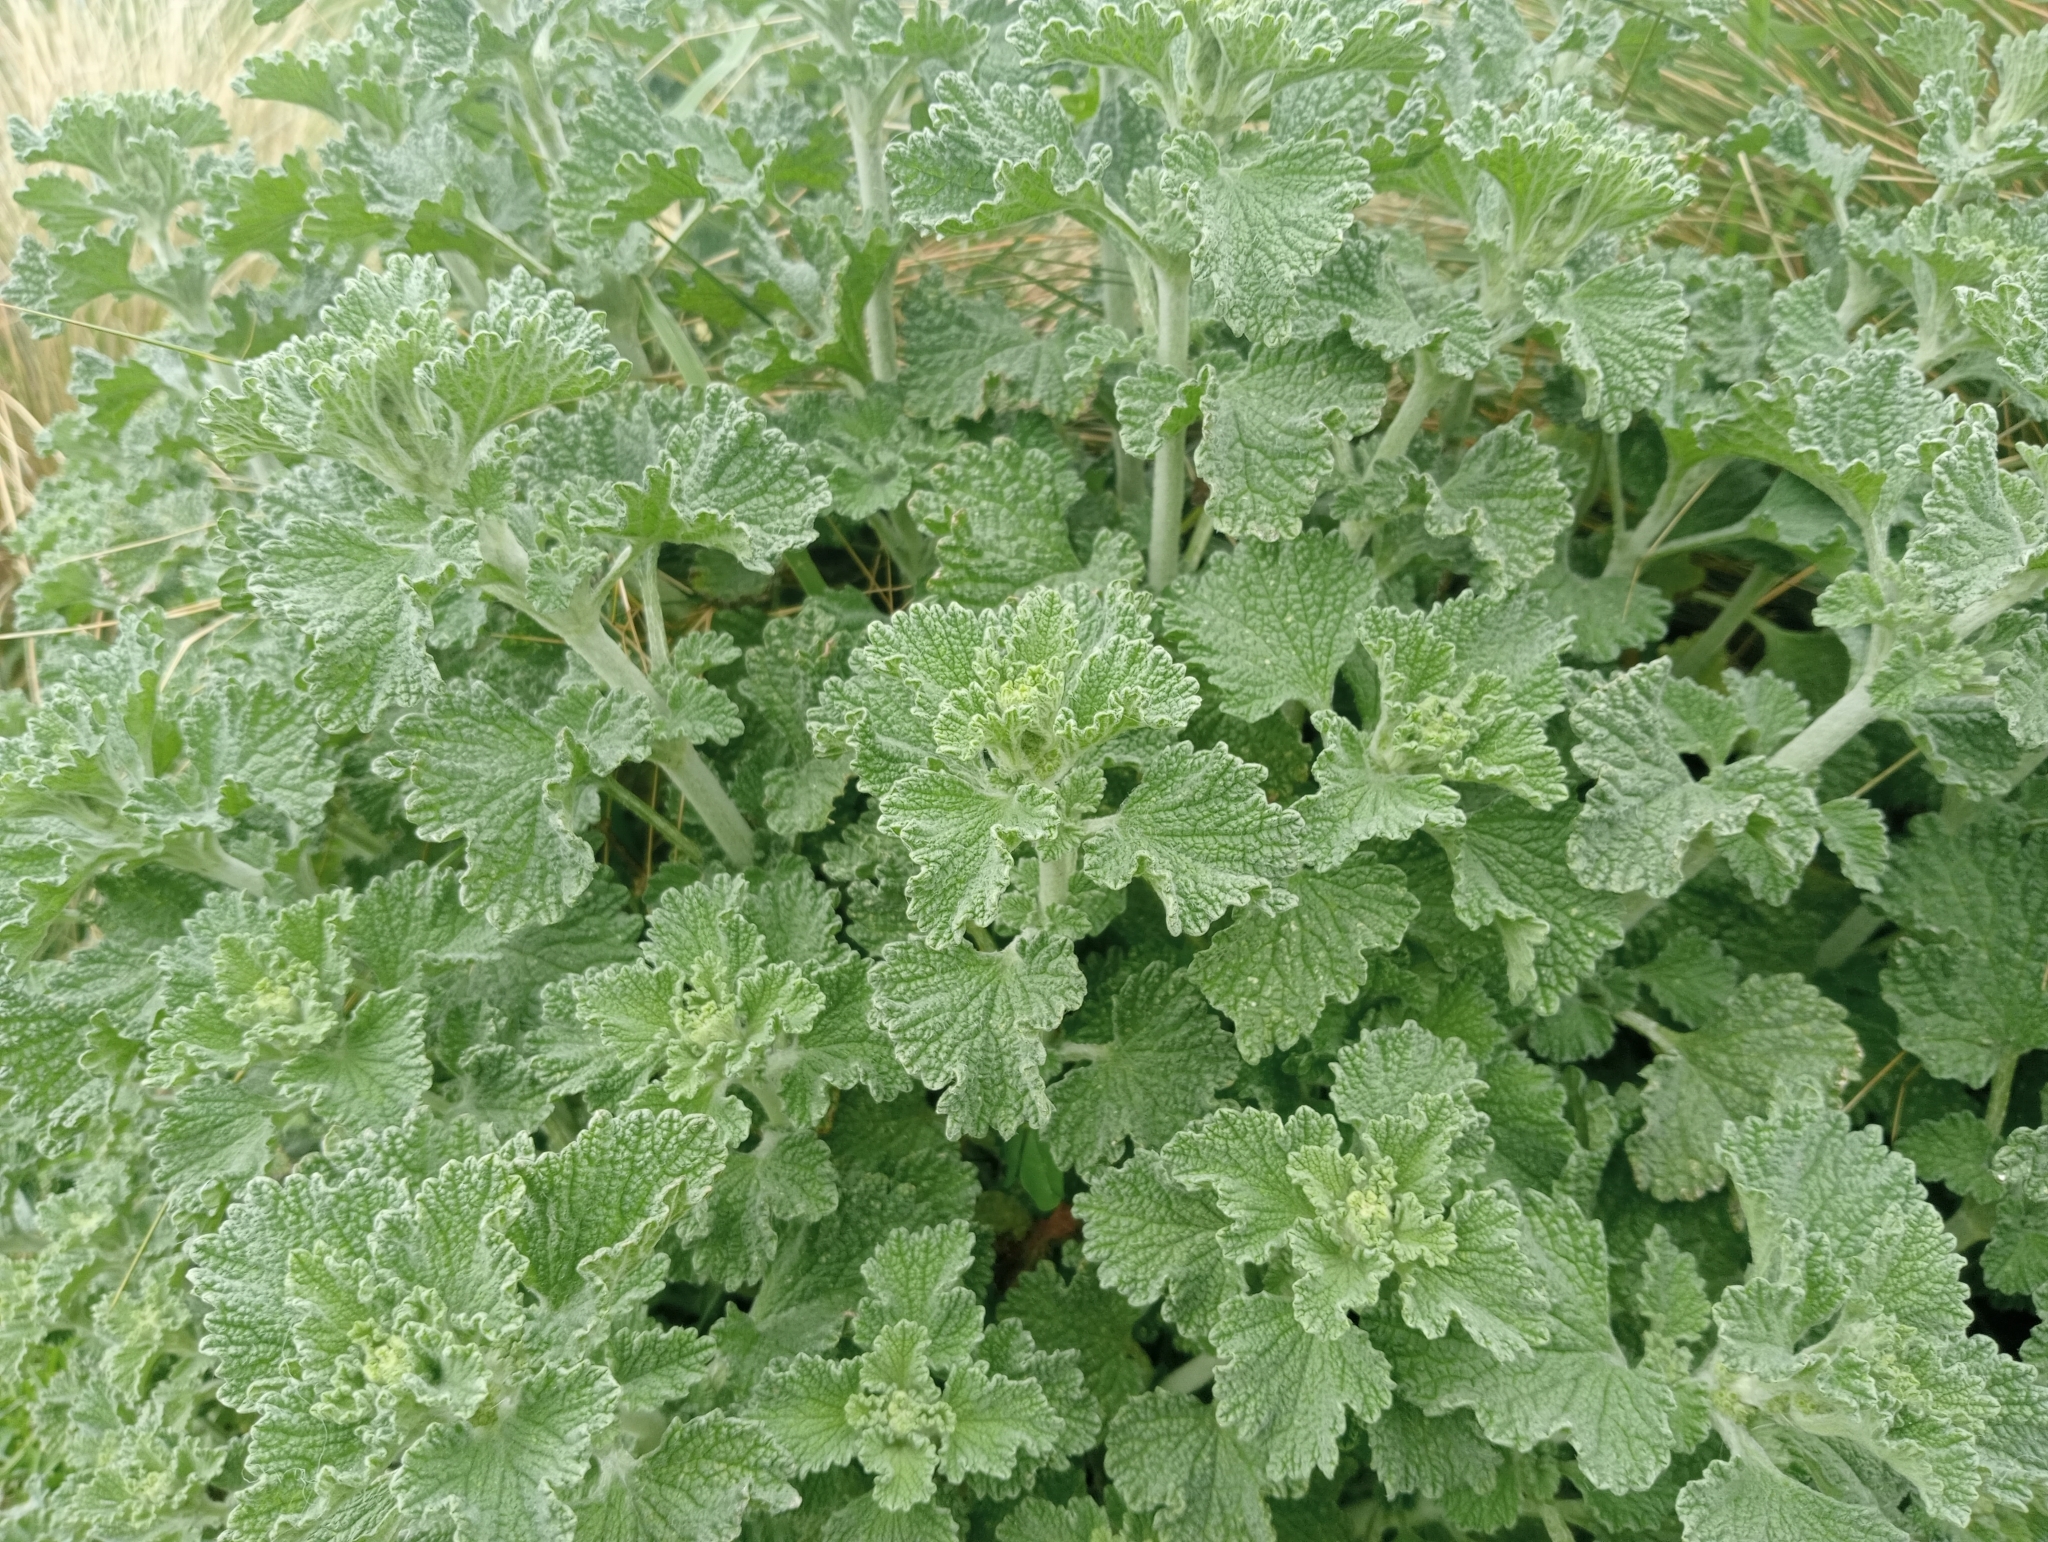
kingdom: Plantae
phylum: Tracheophyta
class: Magnoliopsida
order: Lamiales
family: Lamiaceae
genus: Marrubium
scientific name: Marrubium vulgare
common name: Horehound
